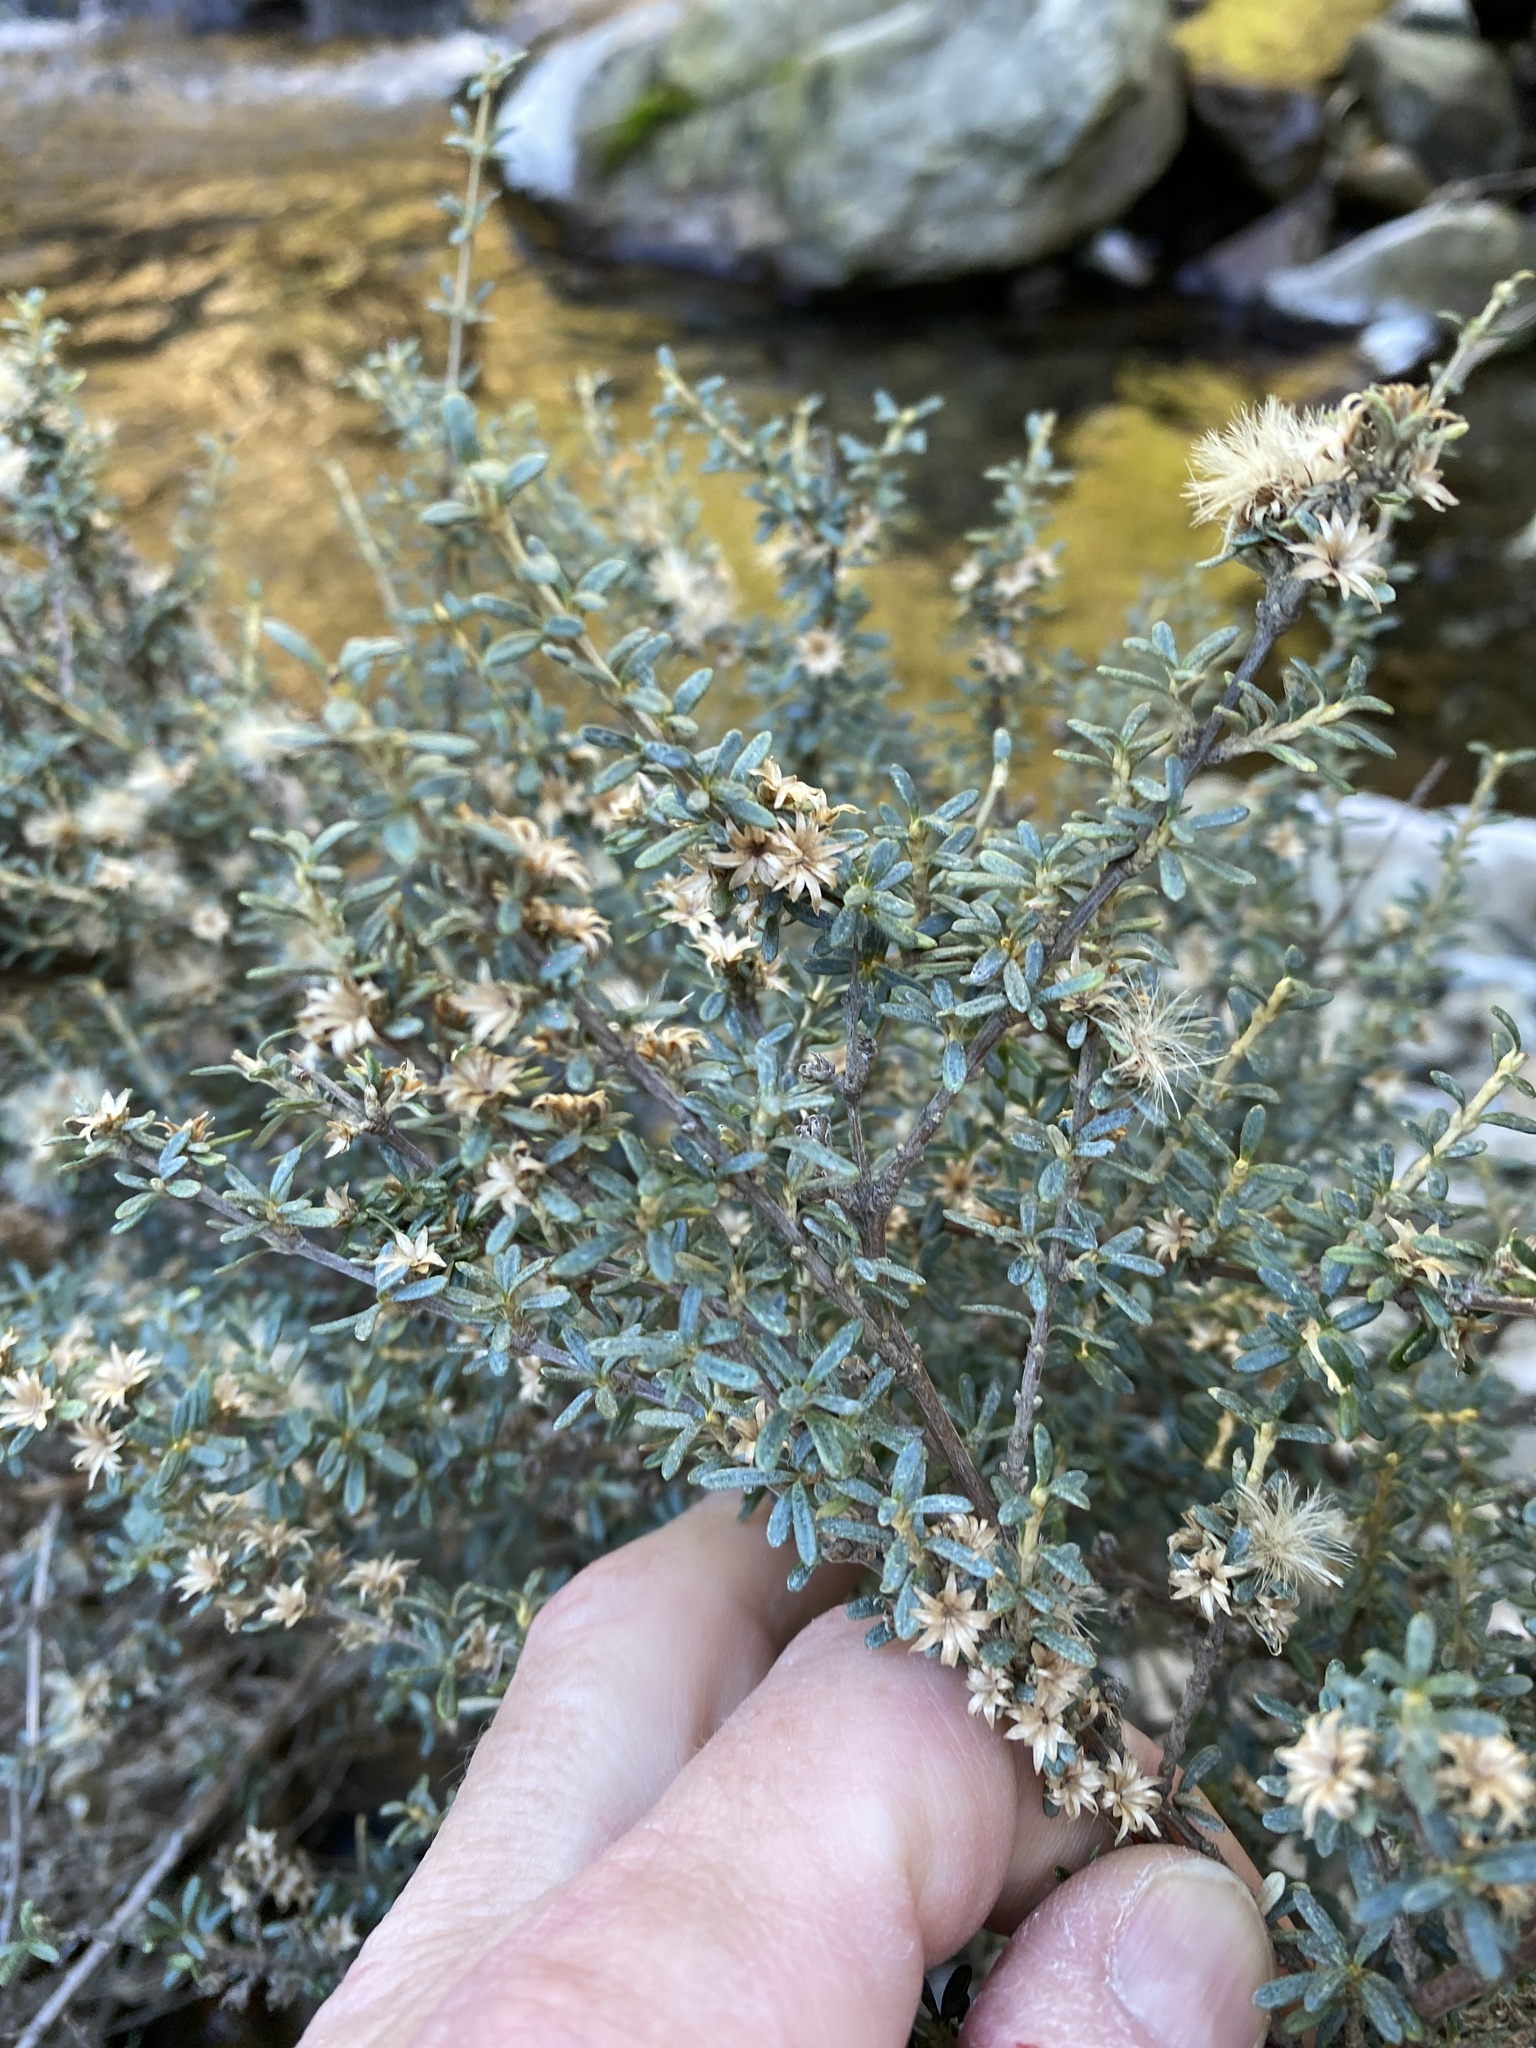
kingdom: Plantae
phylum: Tracheophyta
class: Magnoliopsida
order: Asterales
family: Asteraceae
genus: Olearia
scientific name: Olearia solandri
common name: Coastal daisybush
